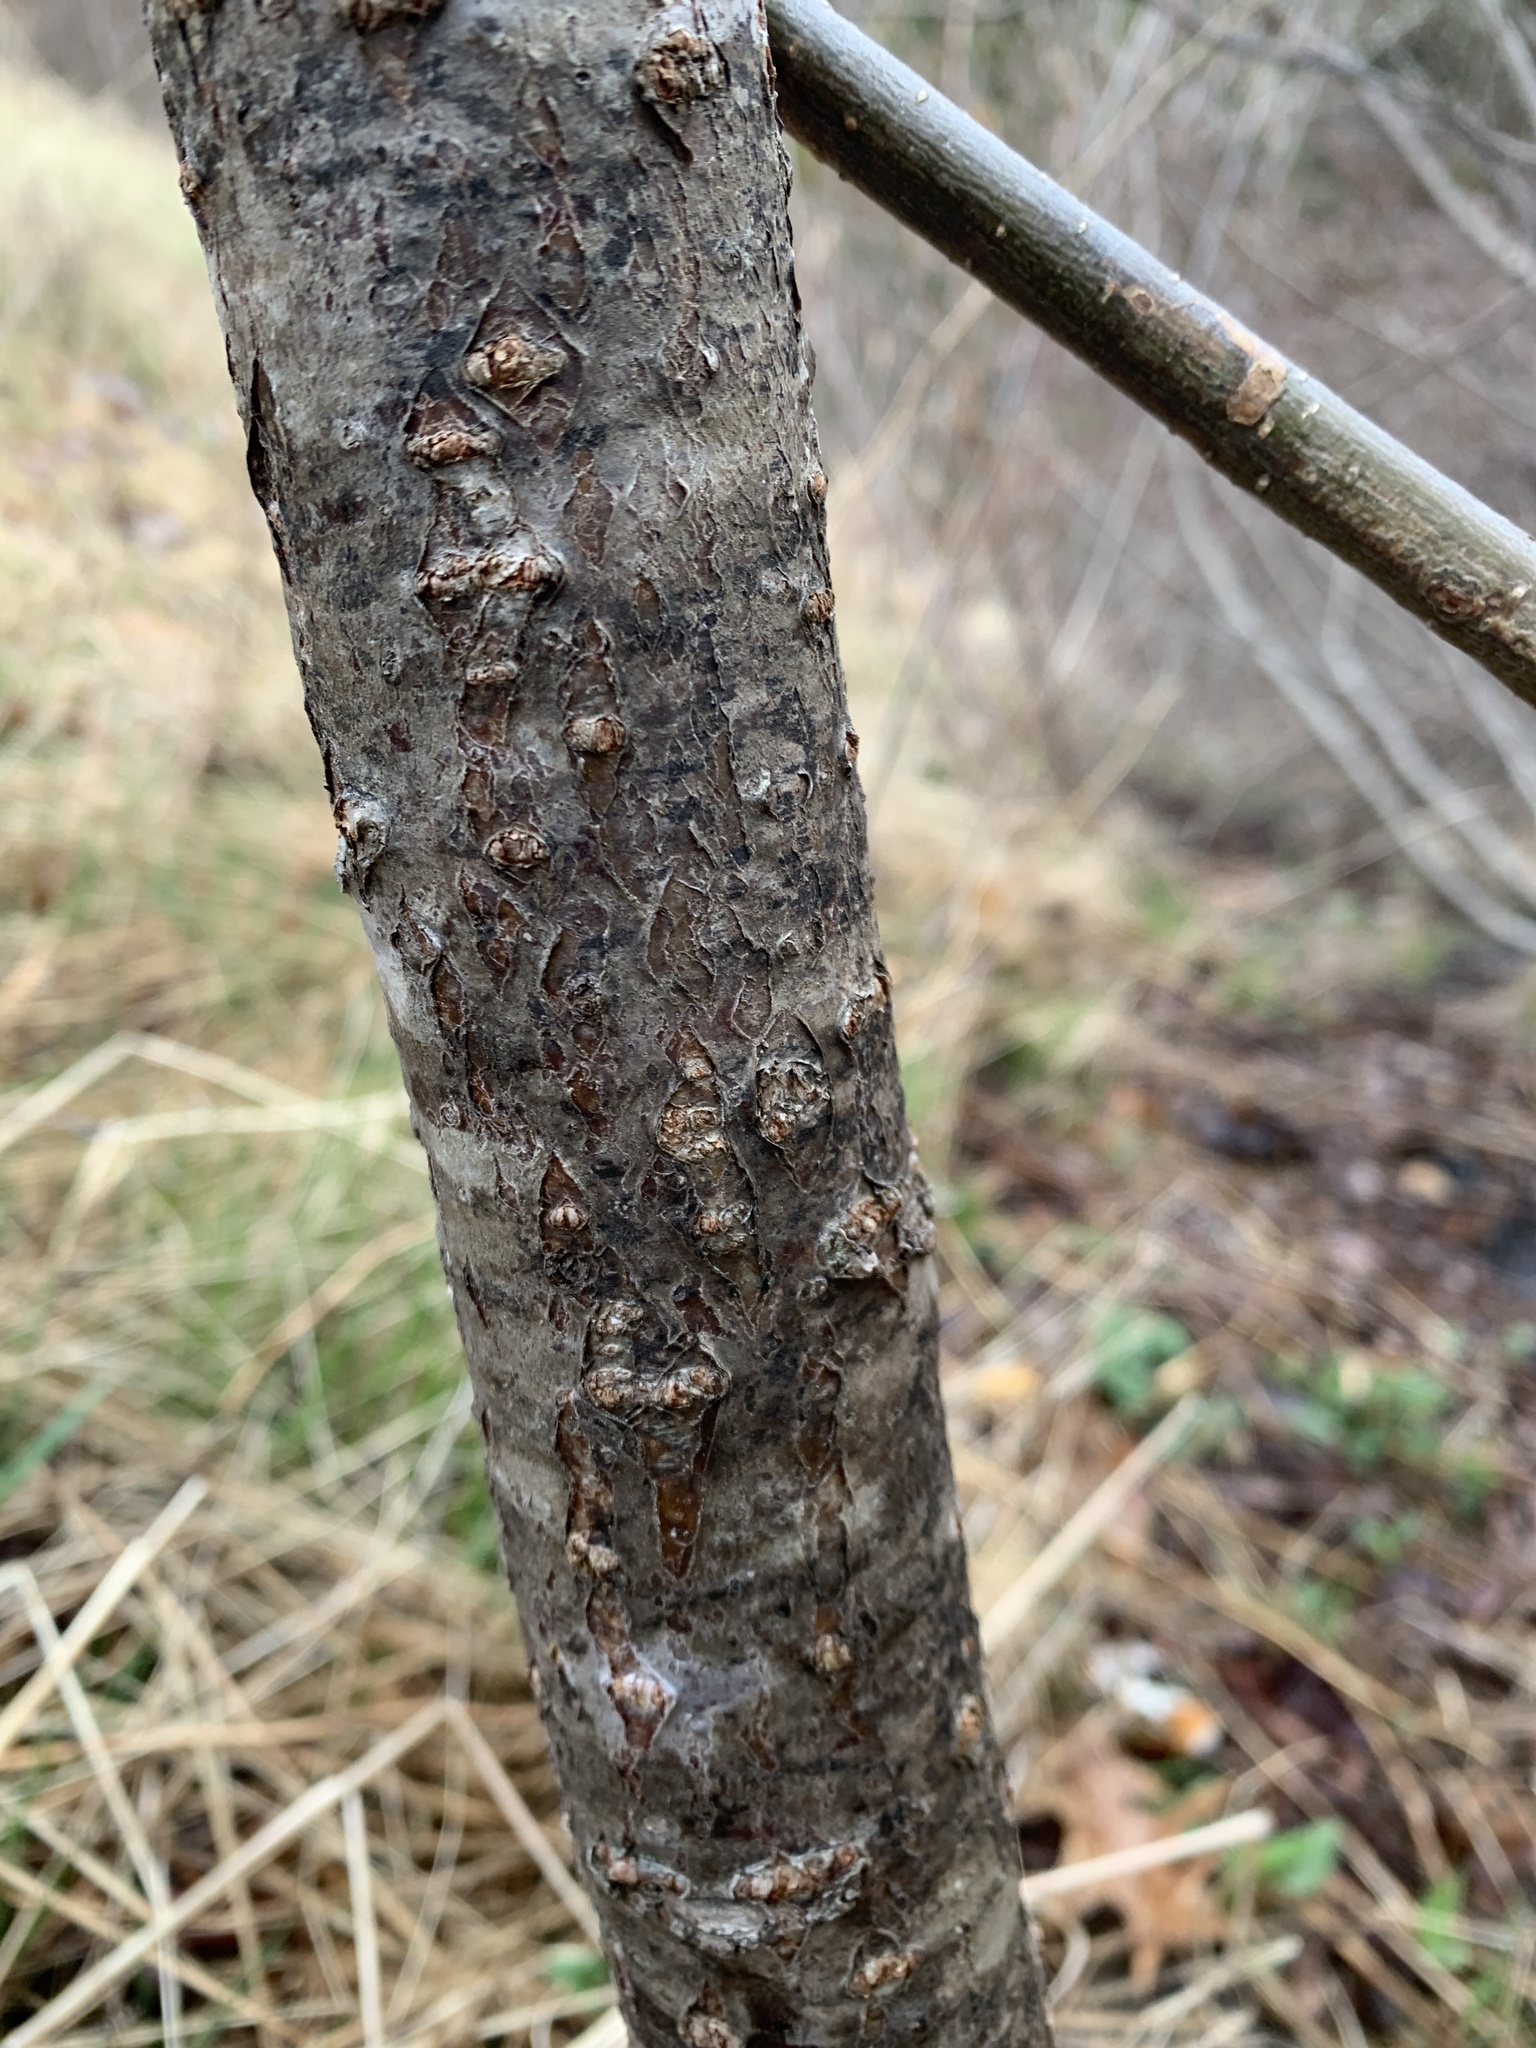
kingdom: Plantae
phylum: Tracheophyta
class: Magnoliopsida
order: Sapindales
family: Anacardiaceae
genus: Rhus
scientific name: Rhus typhina
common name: Staghorn sumac
